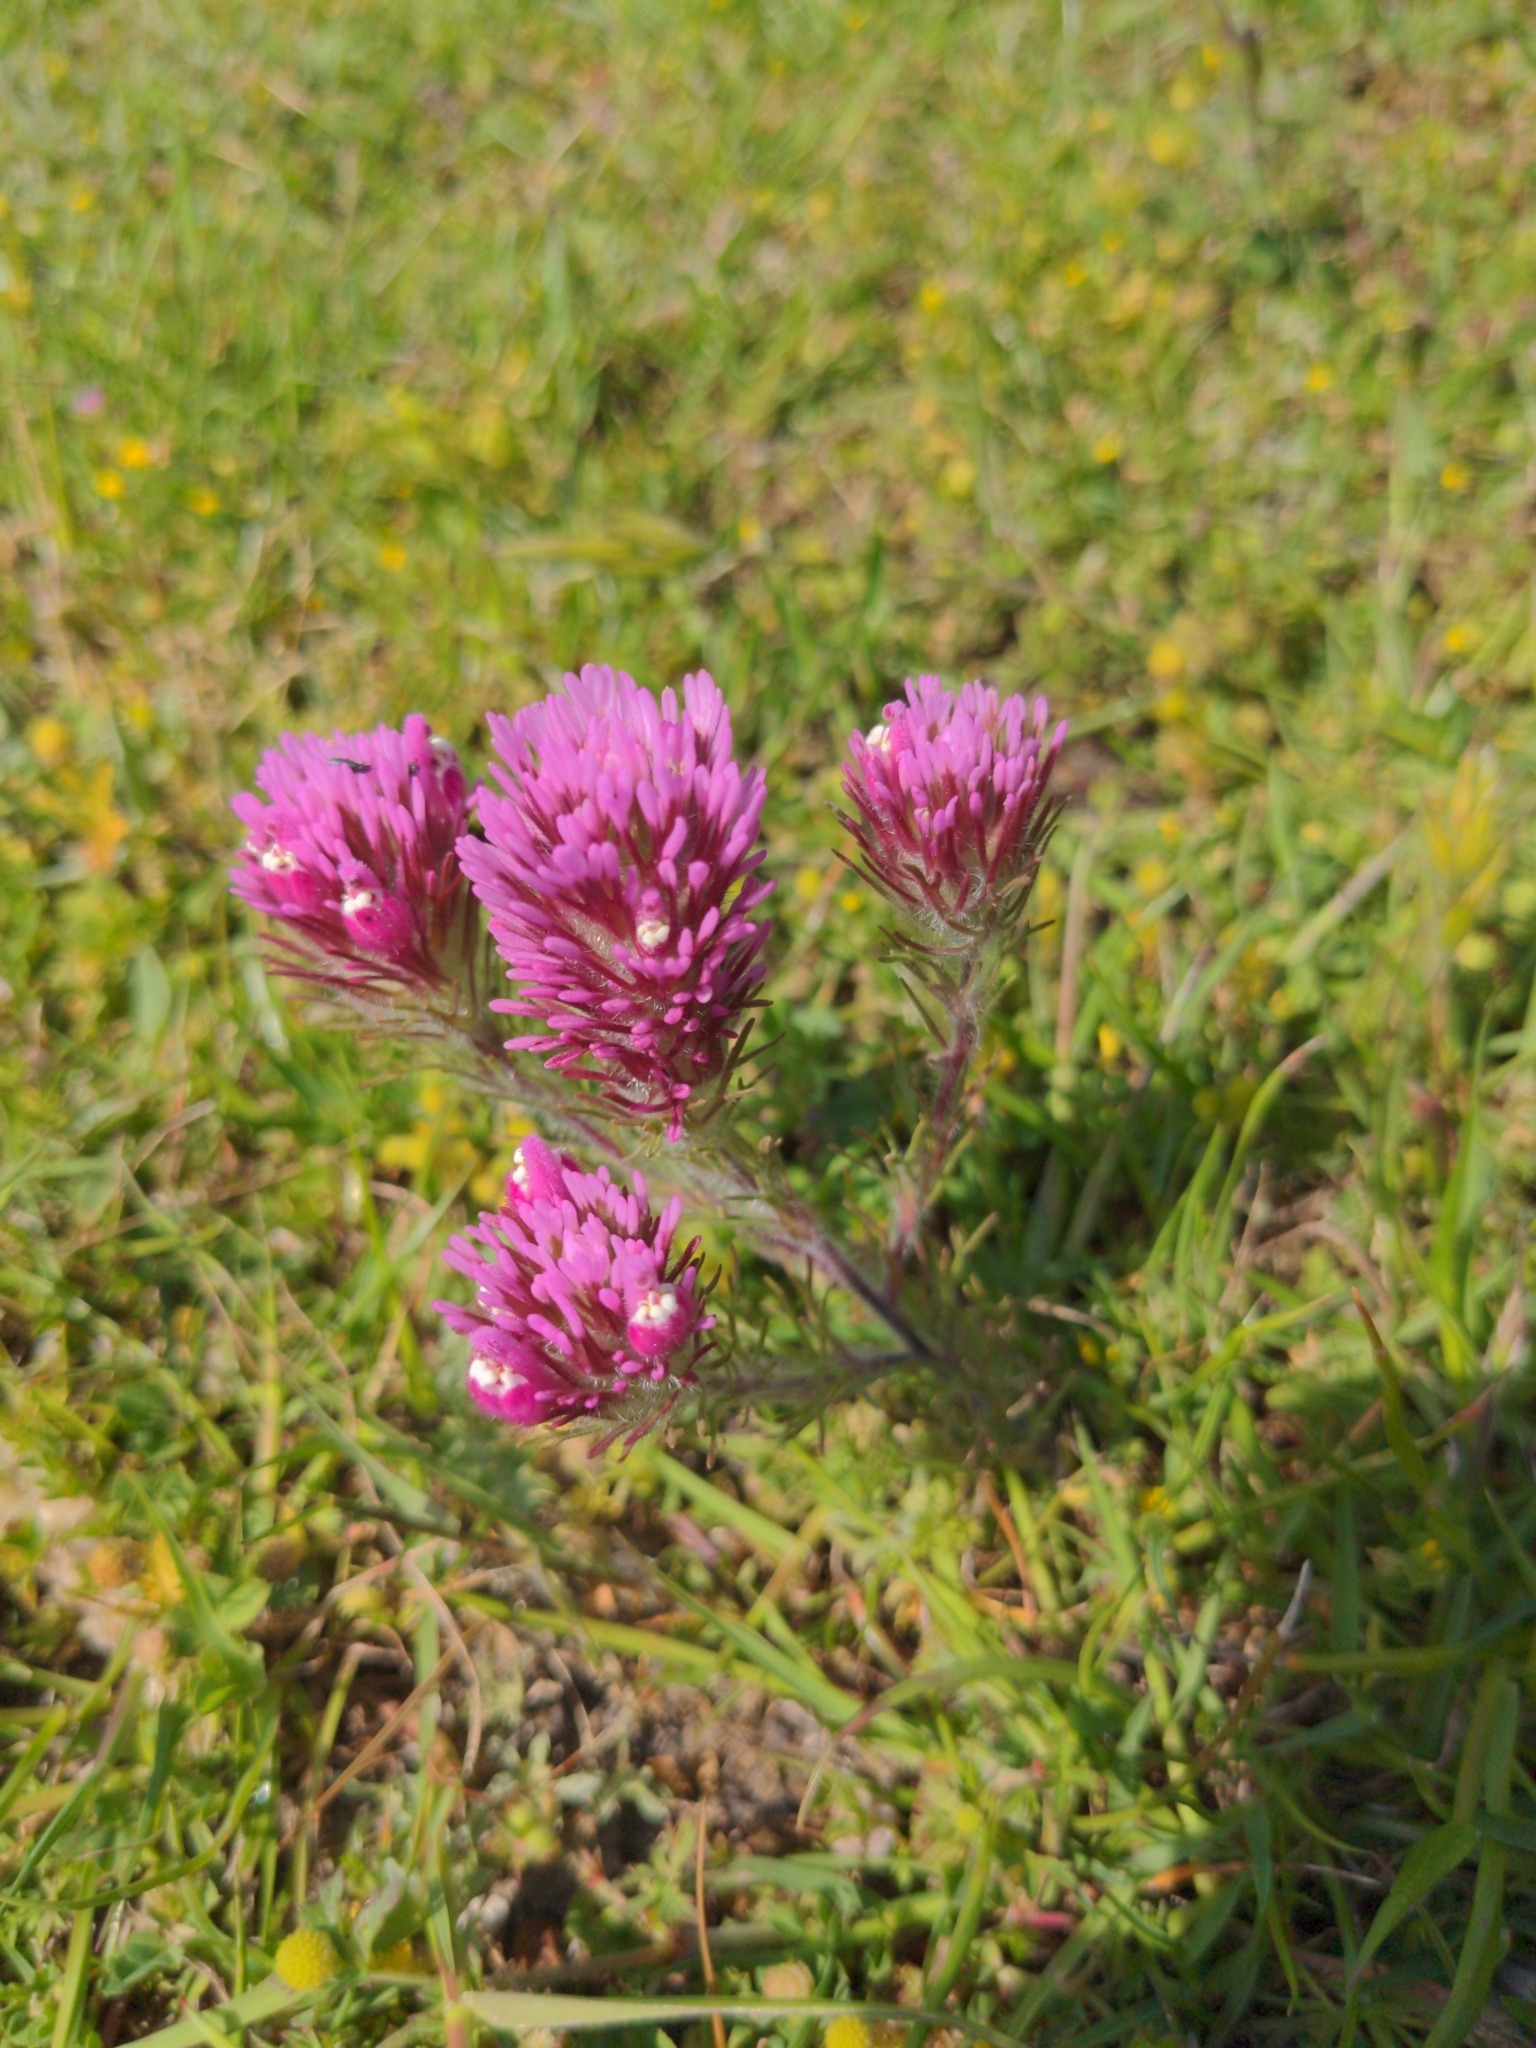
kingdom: Plantae
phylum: Tracheophyta
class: Magnoliopsida
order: Lamiales
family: Orobanchaceae
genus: Castilleja
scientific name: Castilleja exserta
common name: Purple owl-clover
